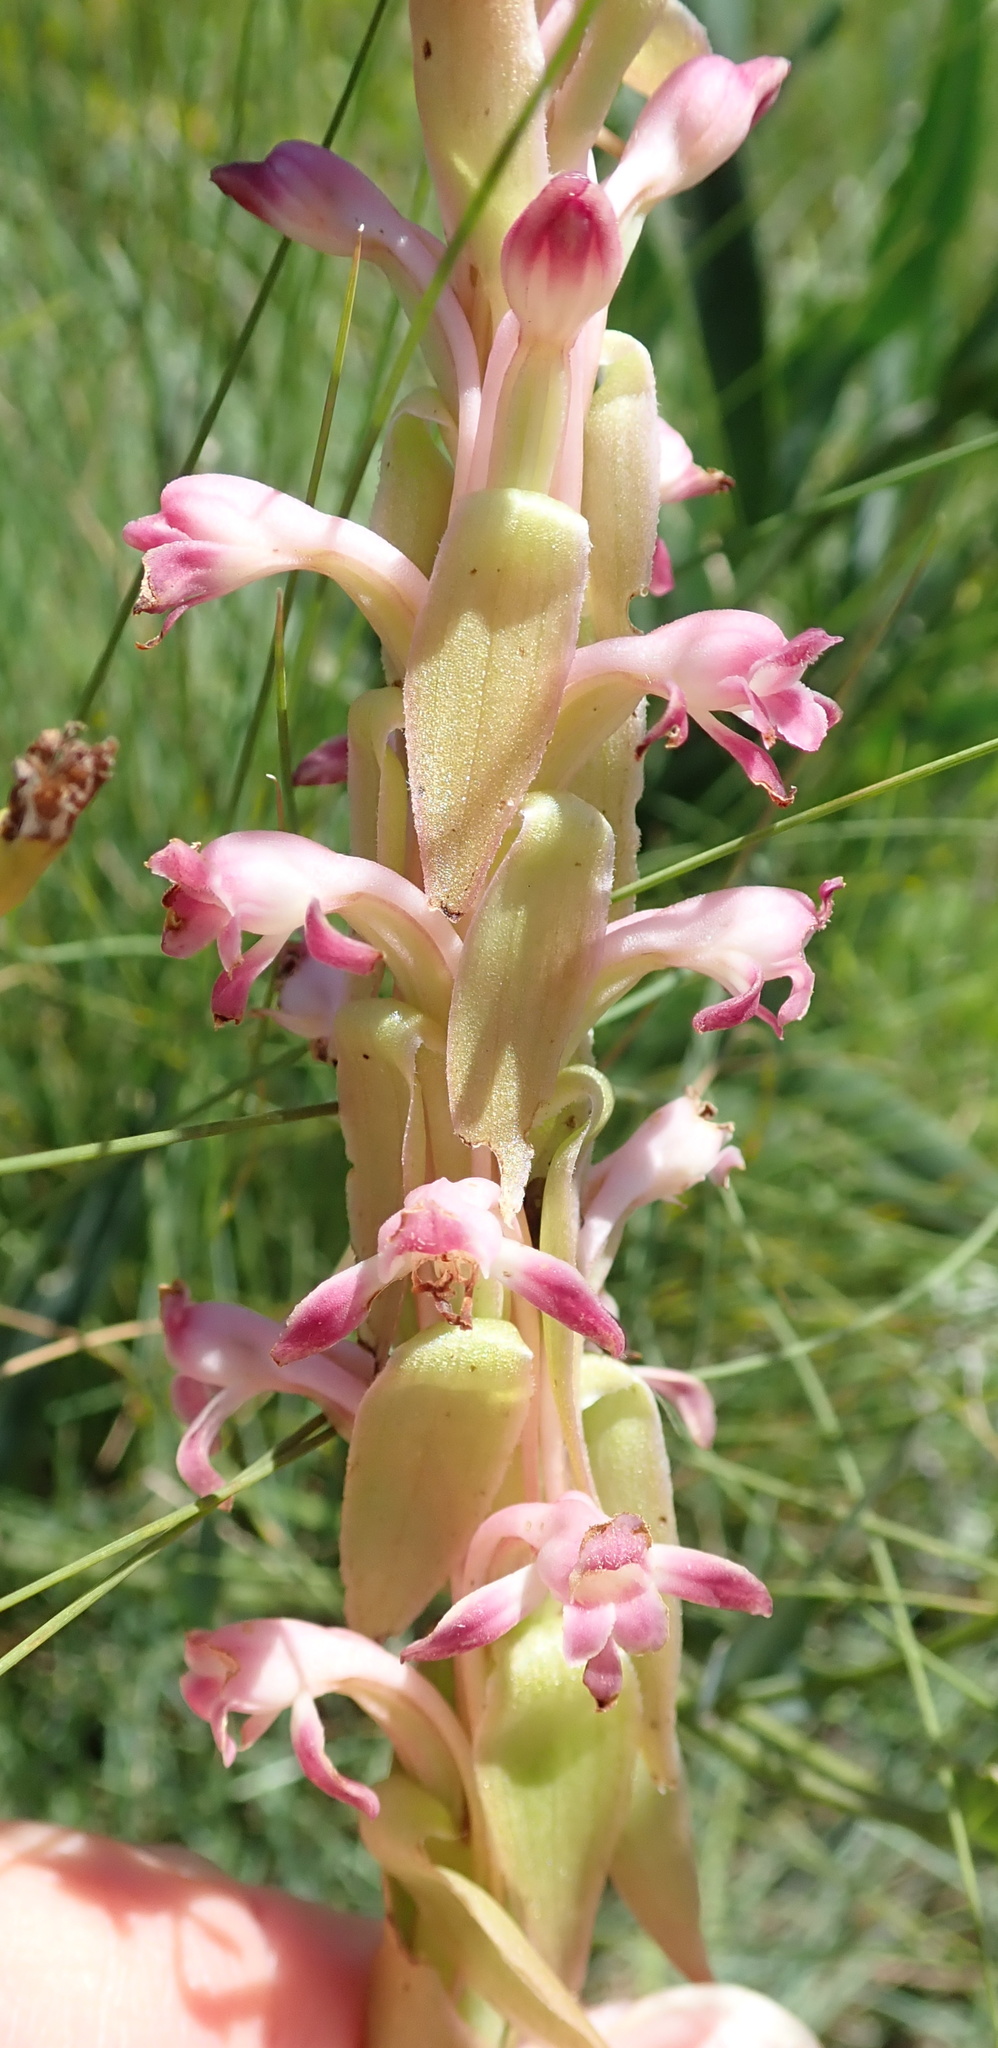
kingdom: Plantae
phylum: Tracheophyta
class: Liliopsida
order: Asparagales
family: Orchidaceae
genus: Satyrium
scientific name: Satyrium longicauda
